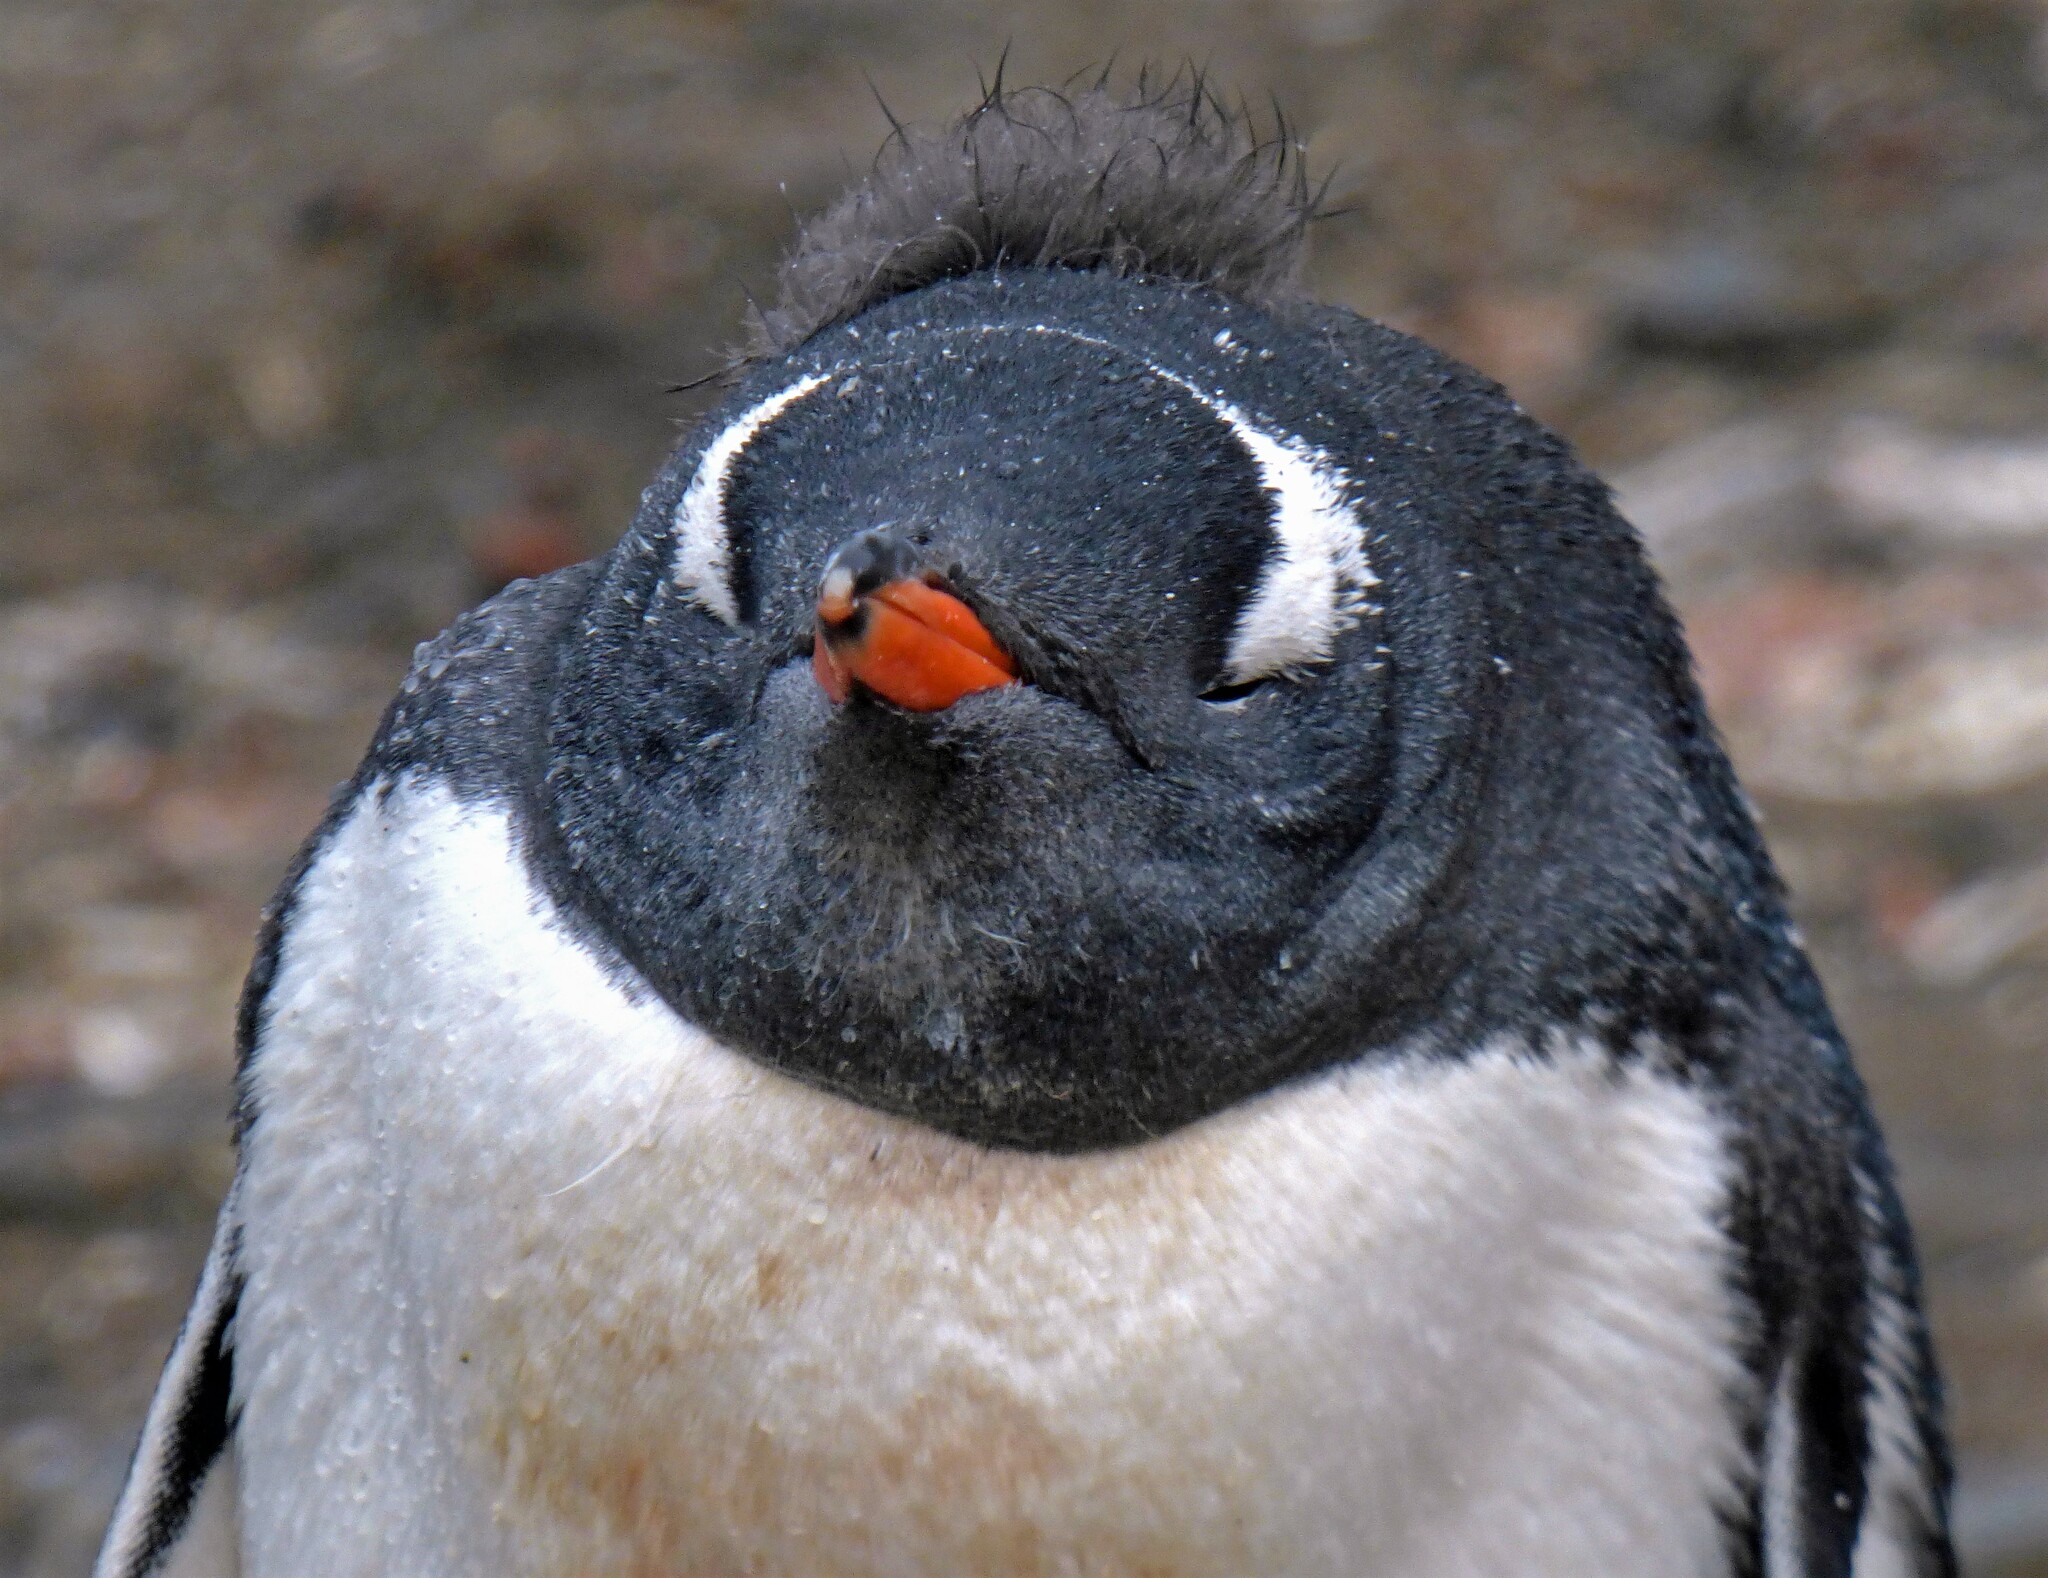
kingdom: Animalia
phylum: Chordata
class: Aves
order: Sphenisciformes
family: Spheniscidae
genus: Pygoscelis
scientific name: Pygoscelis papua
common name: Gentoo penguin
